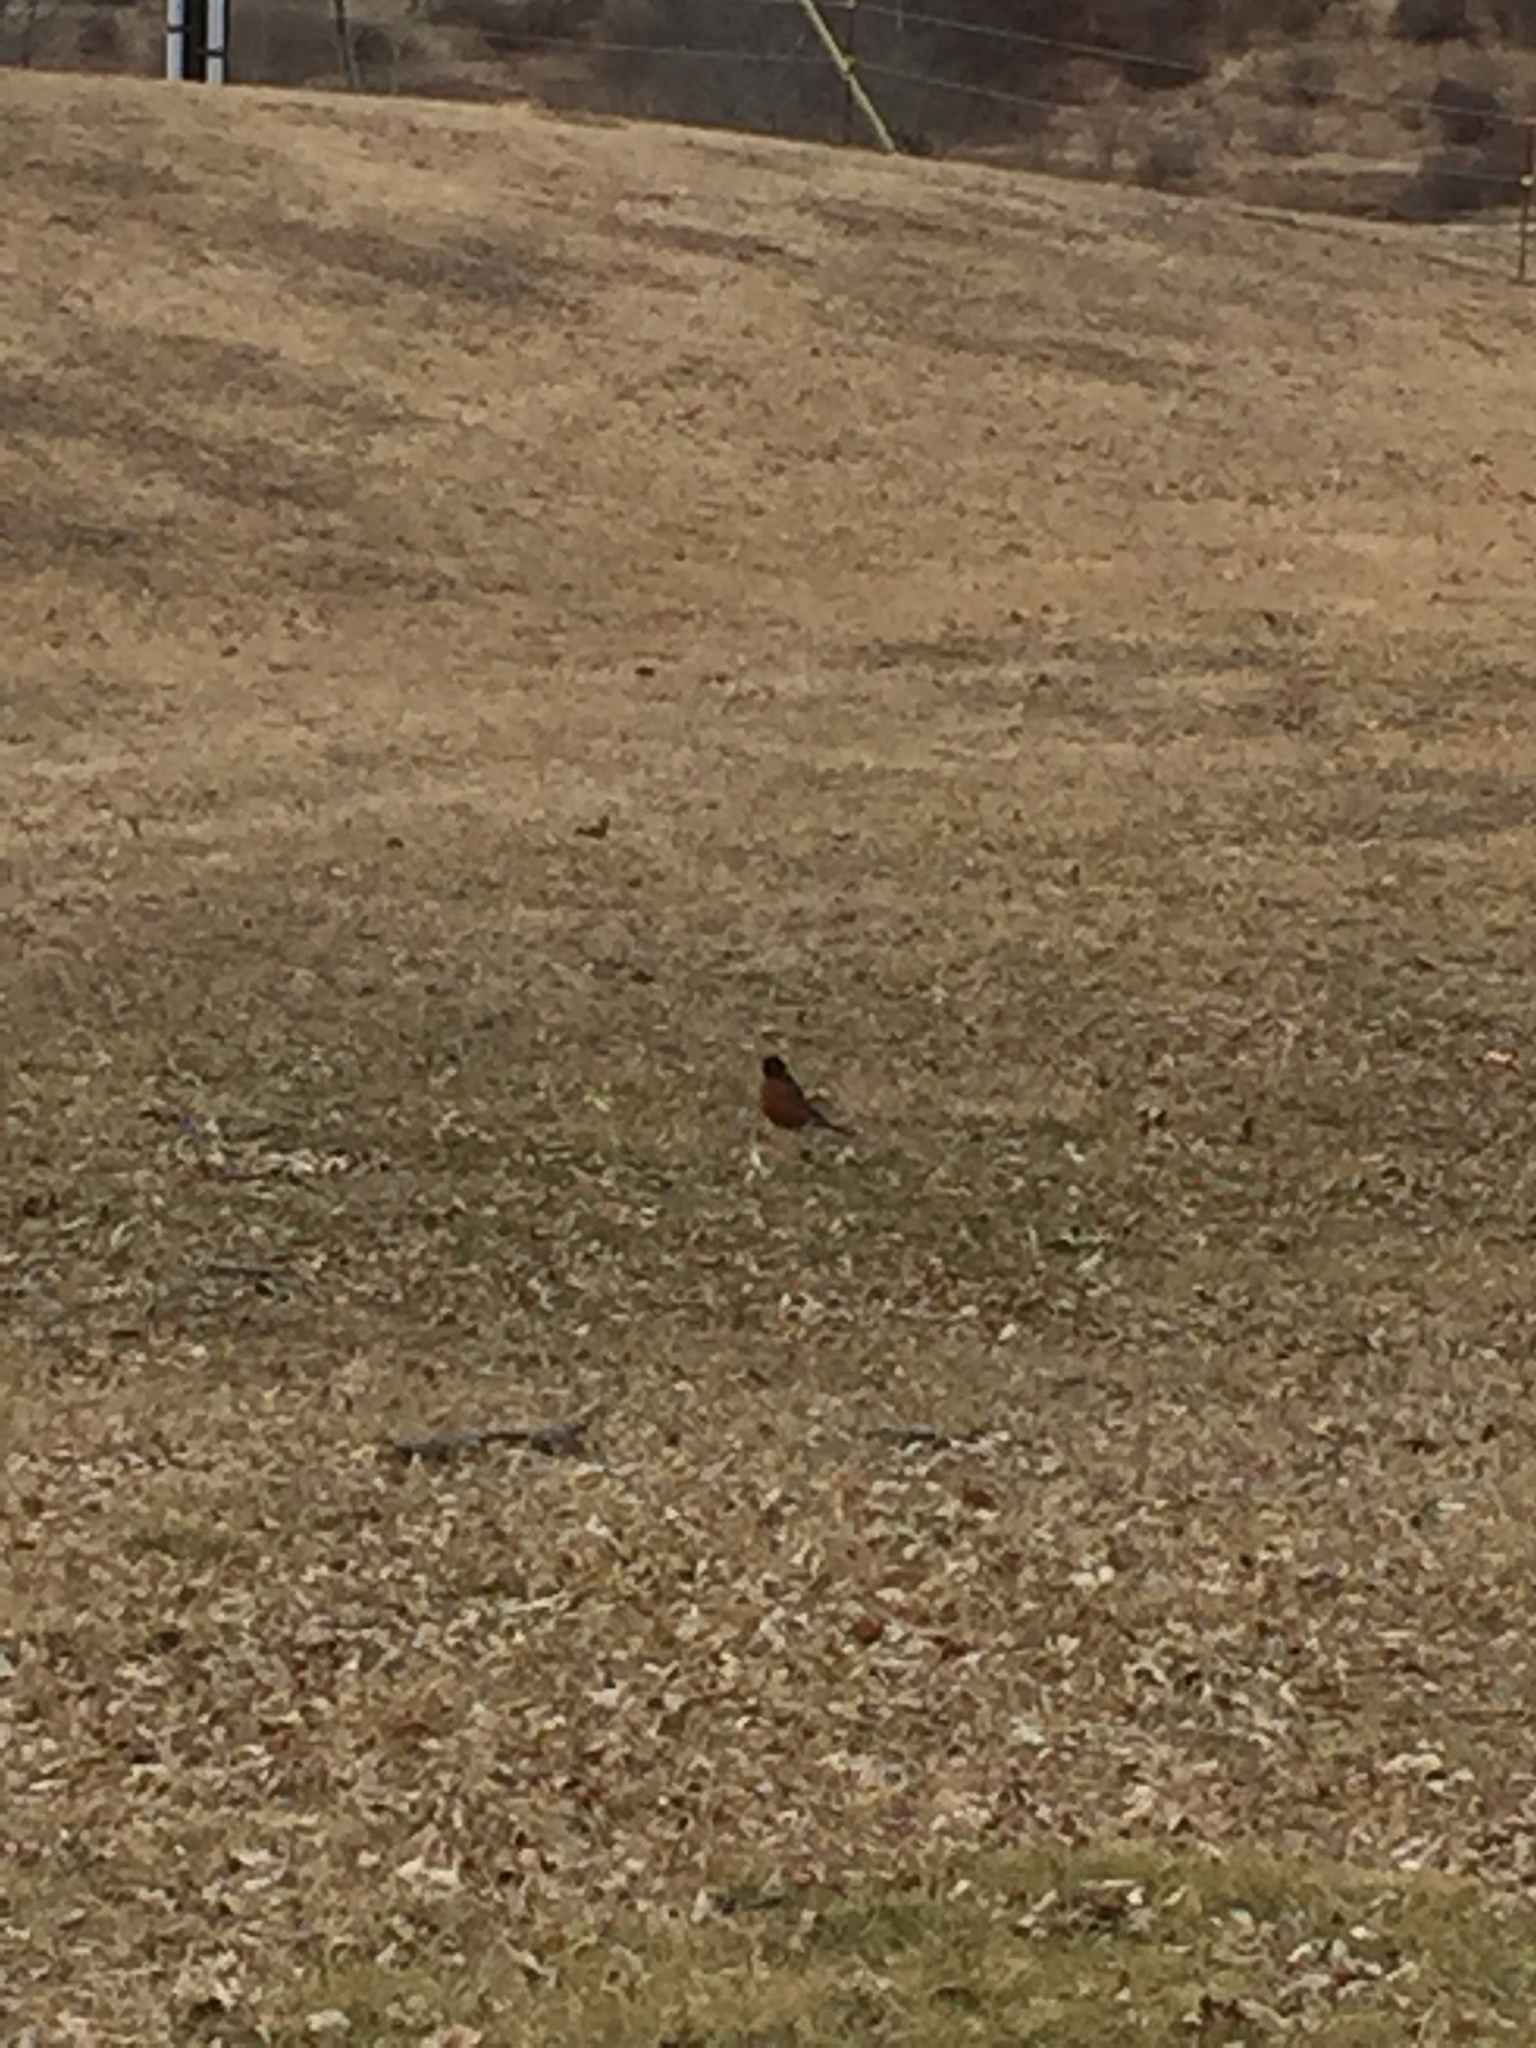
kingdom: Animalia
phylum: Chordata
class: Aves
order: Passeriformes
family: Turdidae
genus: Turdus
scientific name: Turdus migratorius
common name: American robin
